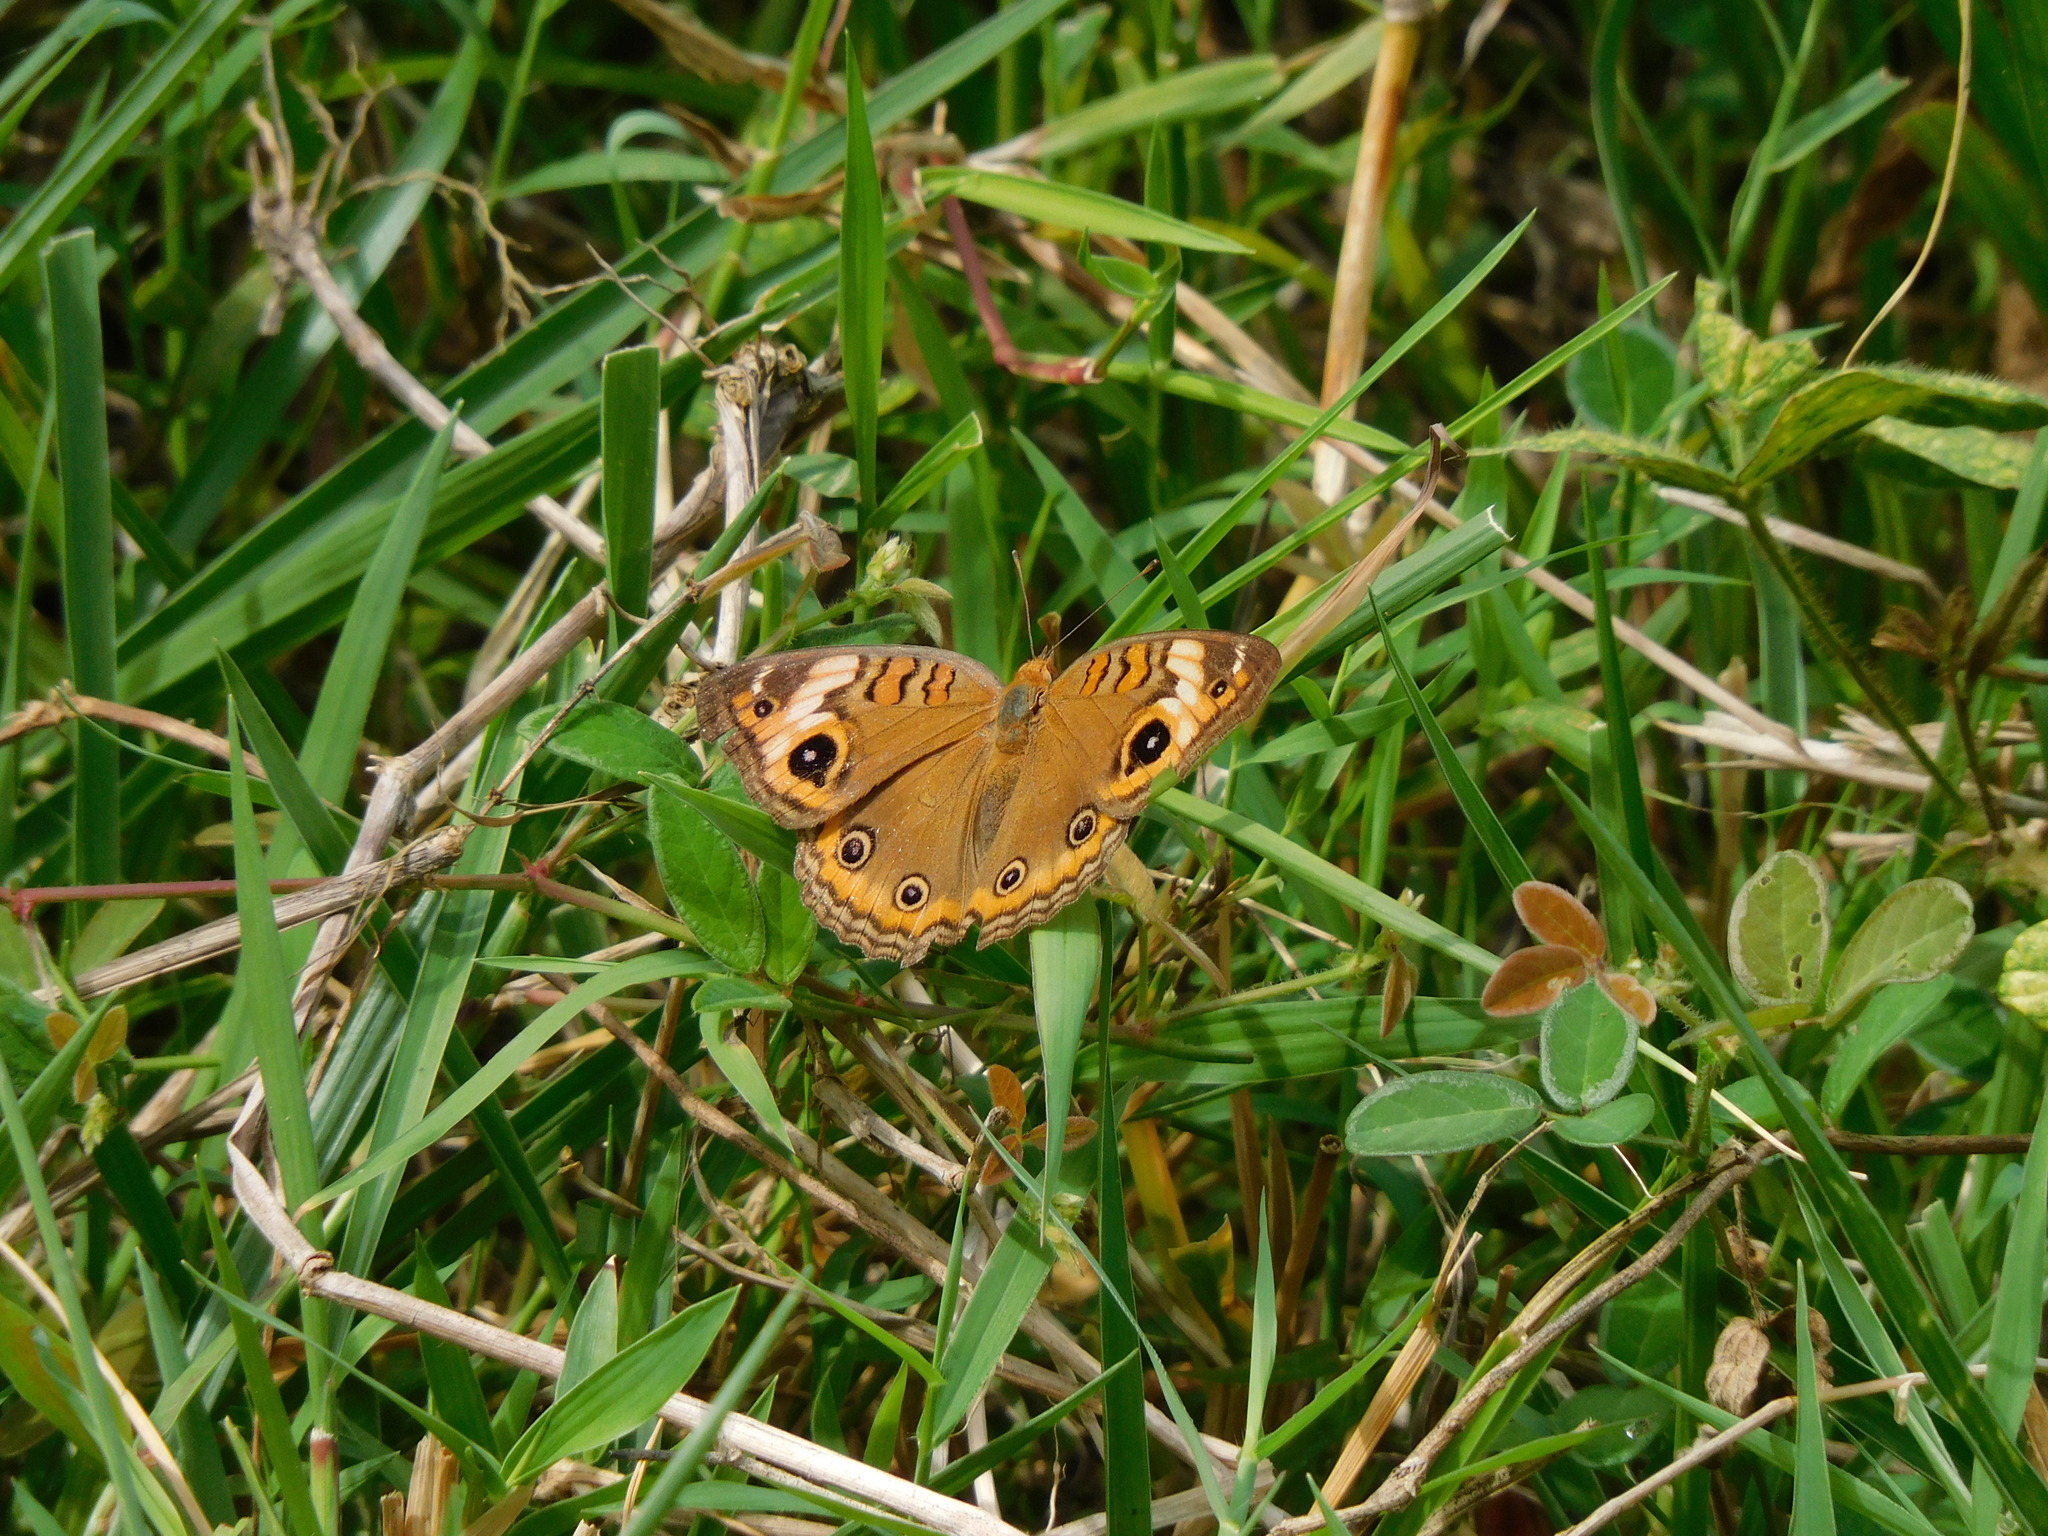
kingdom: Animalia
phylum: Arthropoda
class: Insecta
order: Lepidoptera
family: Nymphalidae
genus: Junonia
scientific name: Junonia lavinia
